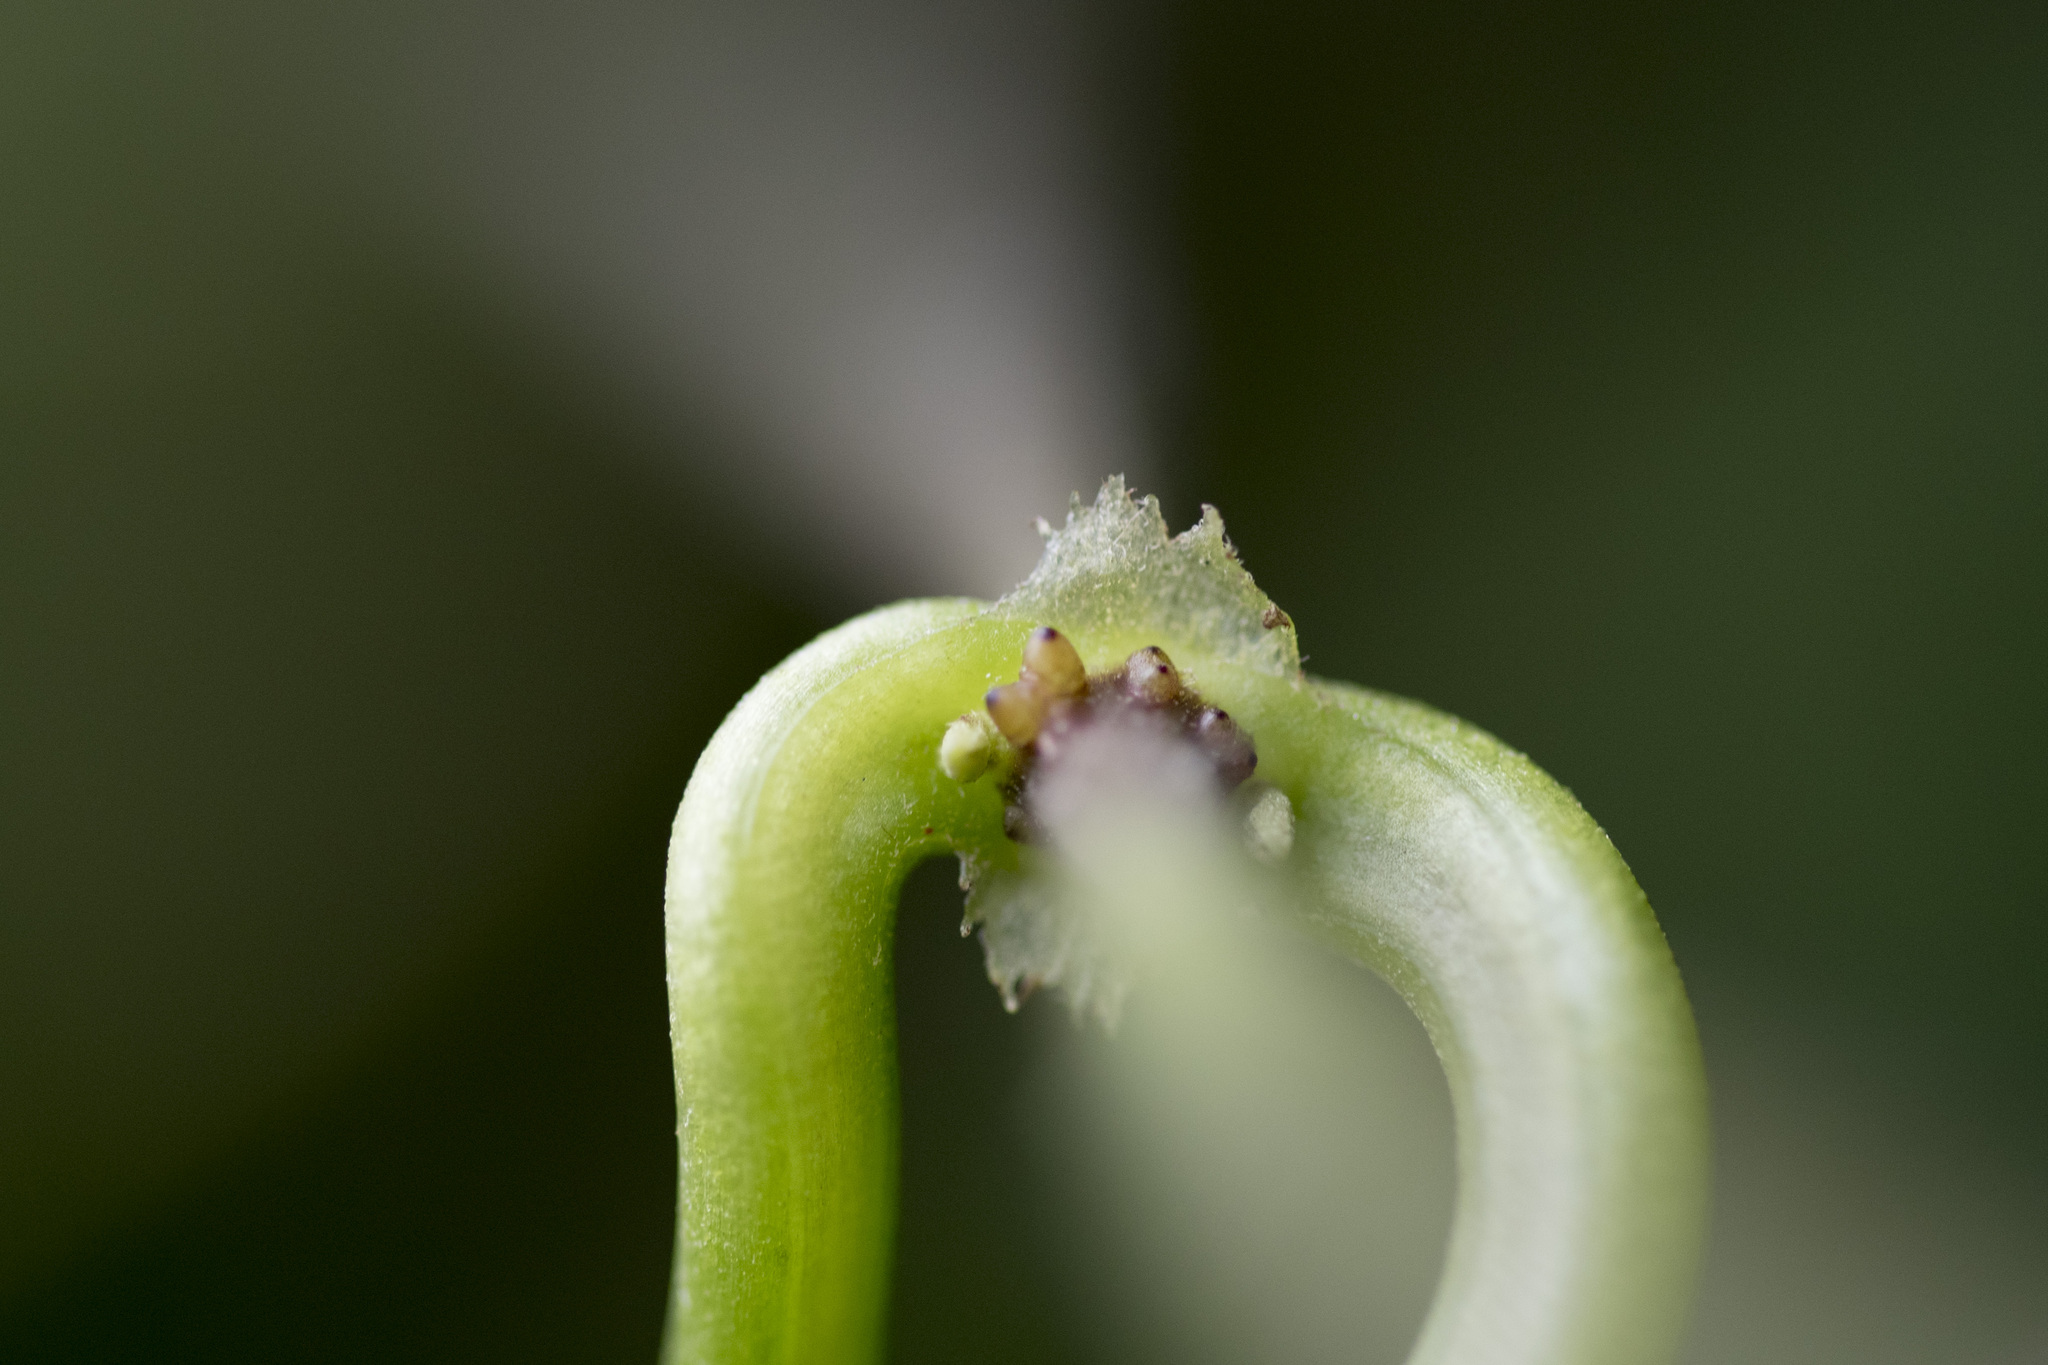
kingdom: Plantae
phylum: Tracheophyta
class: Magnoliopsida
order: Asterales
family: Asteraceae
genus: Mikania
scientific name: Mikania micrantha
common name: Mile-a-minute
